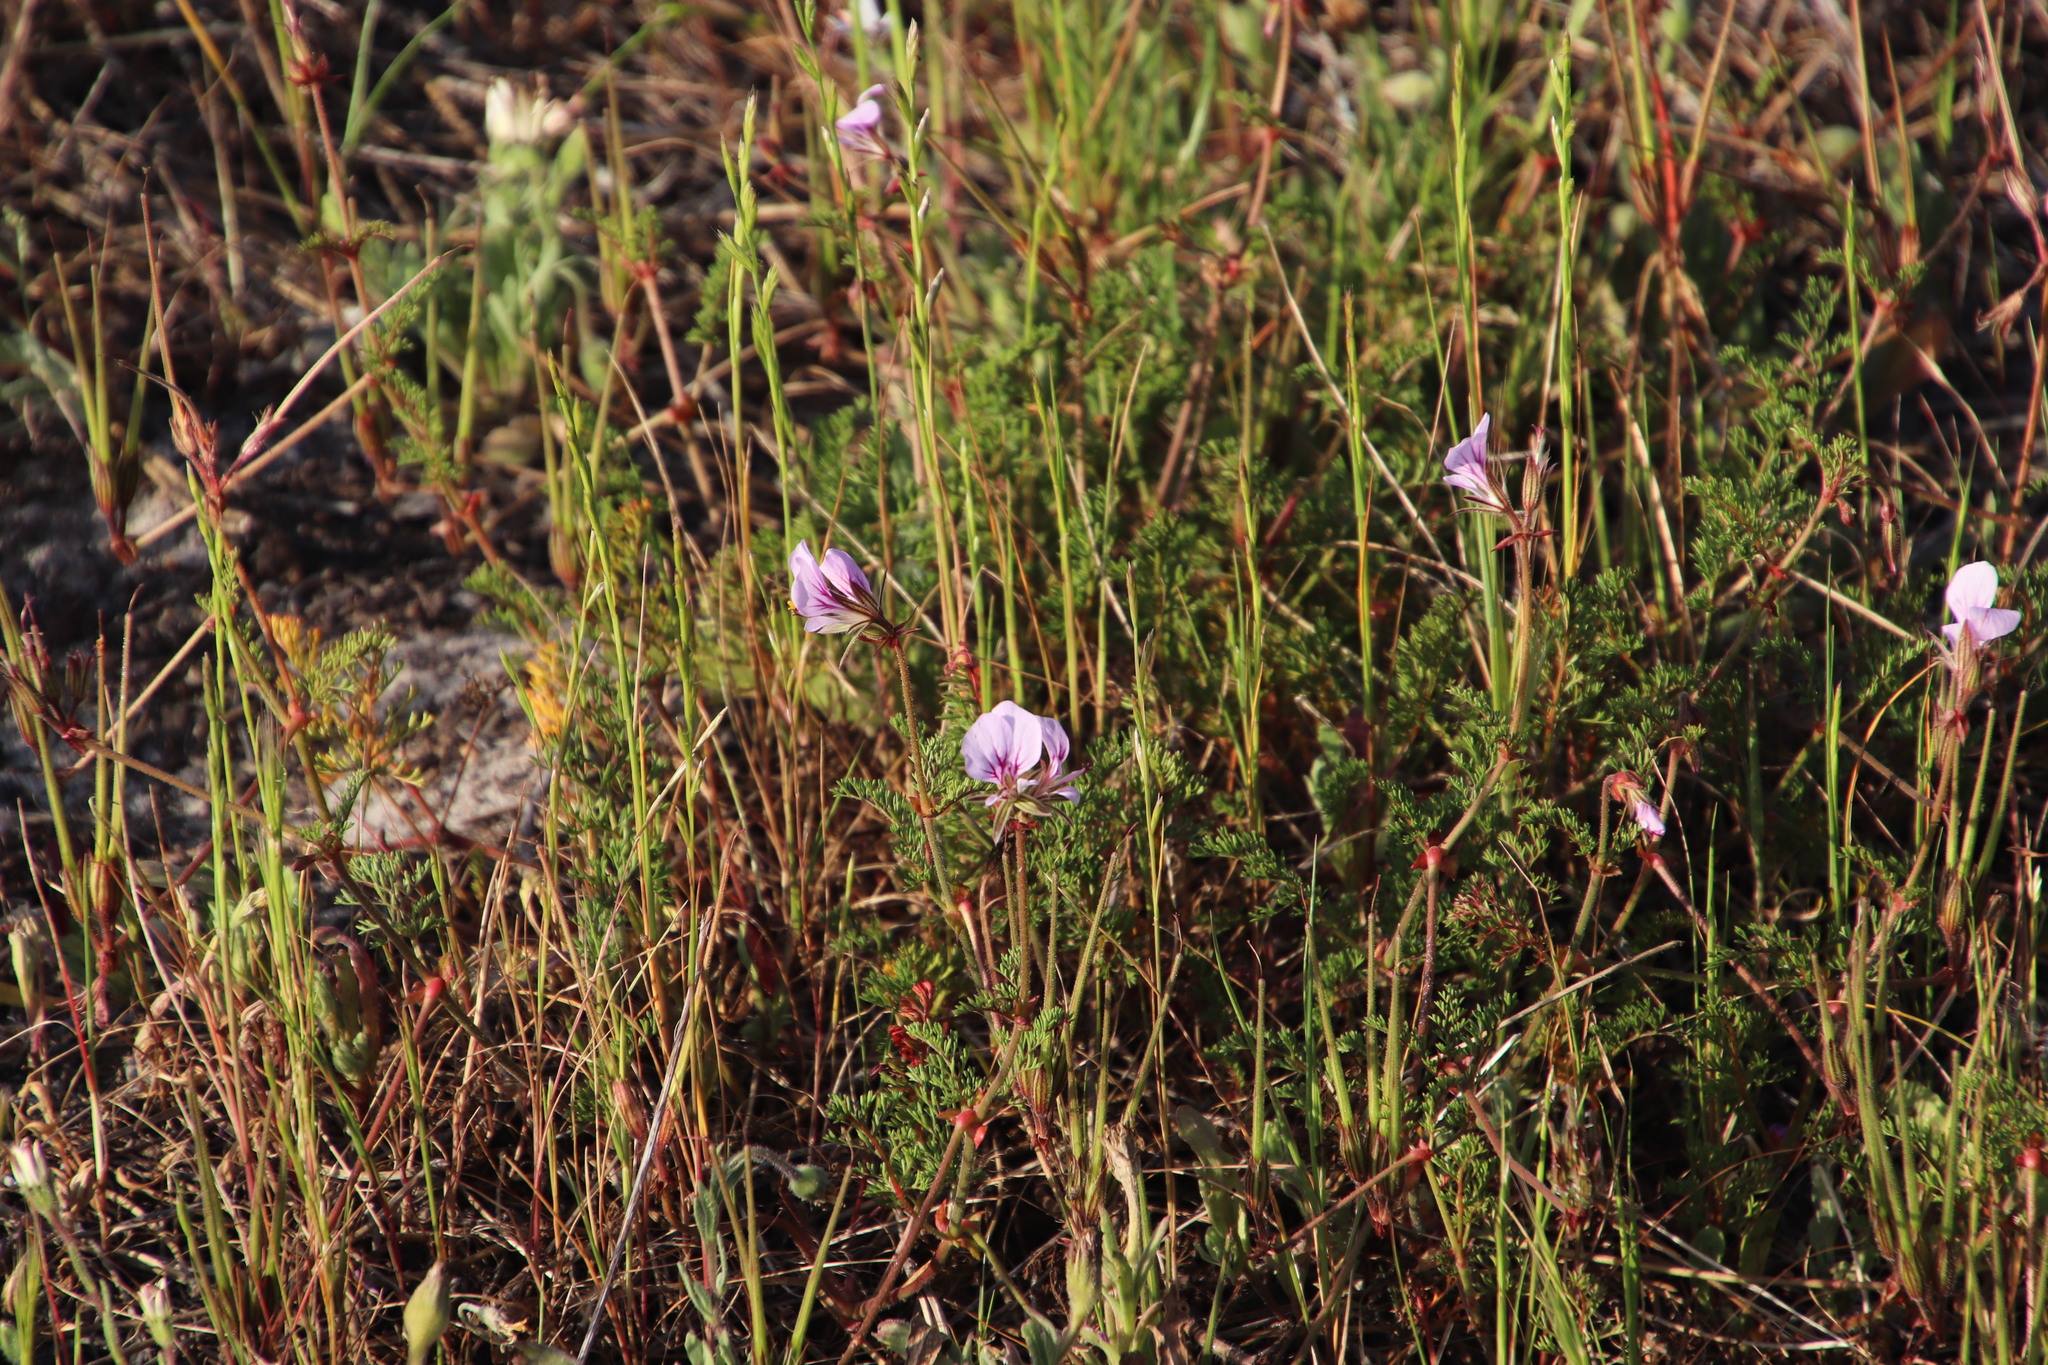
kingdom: Plantae
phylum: Tracheophyta
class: Magnoliopsida
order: Geraniales
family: Geraniaceae
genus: Pelargonium
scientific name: Pelargonium myrrhifolium
